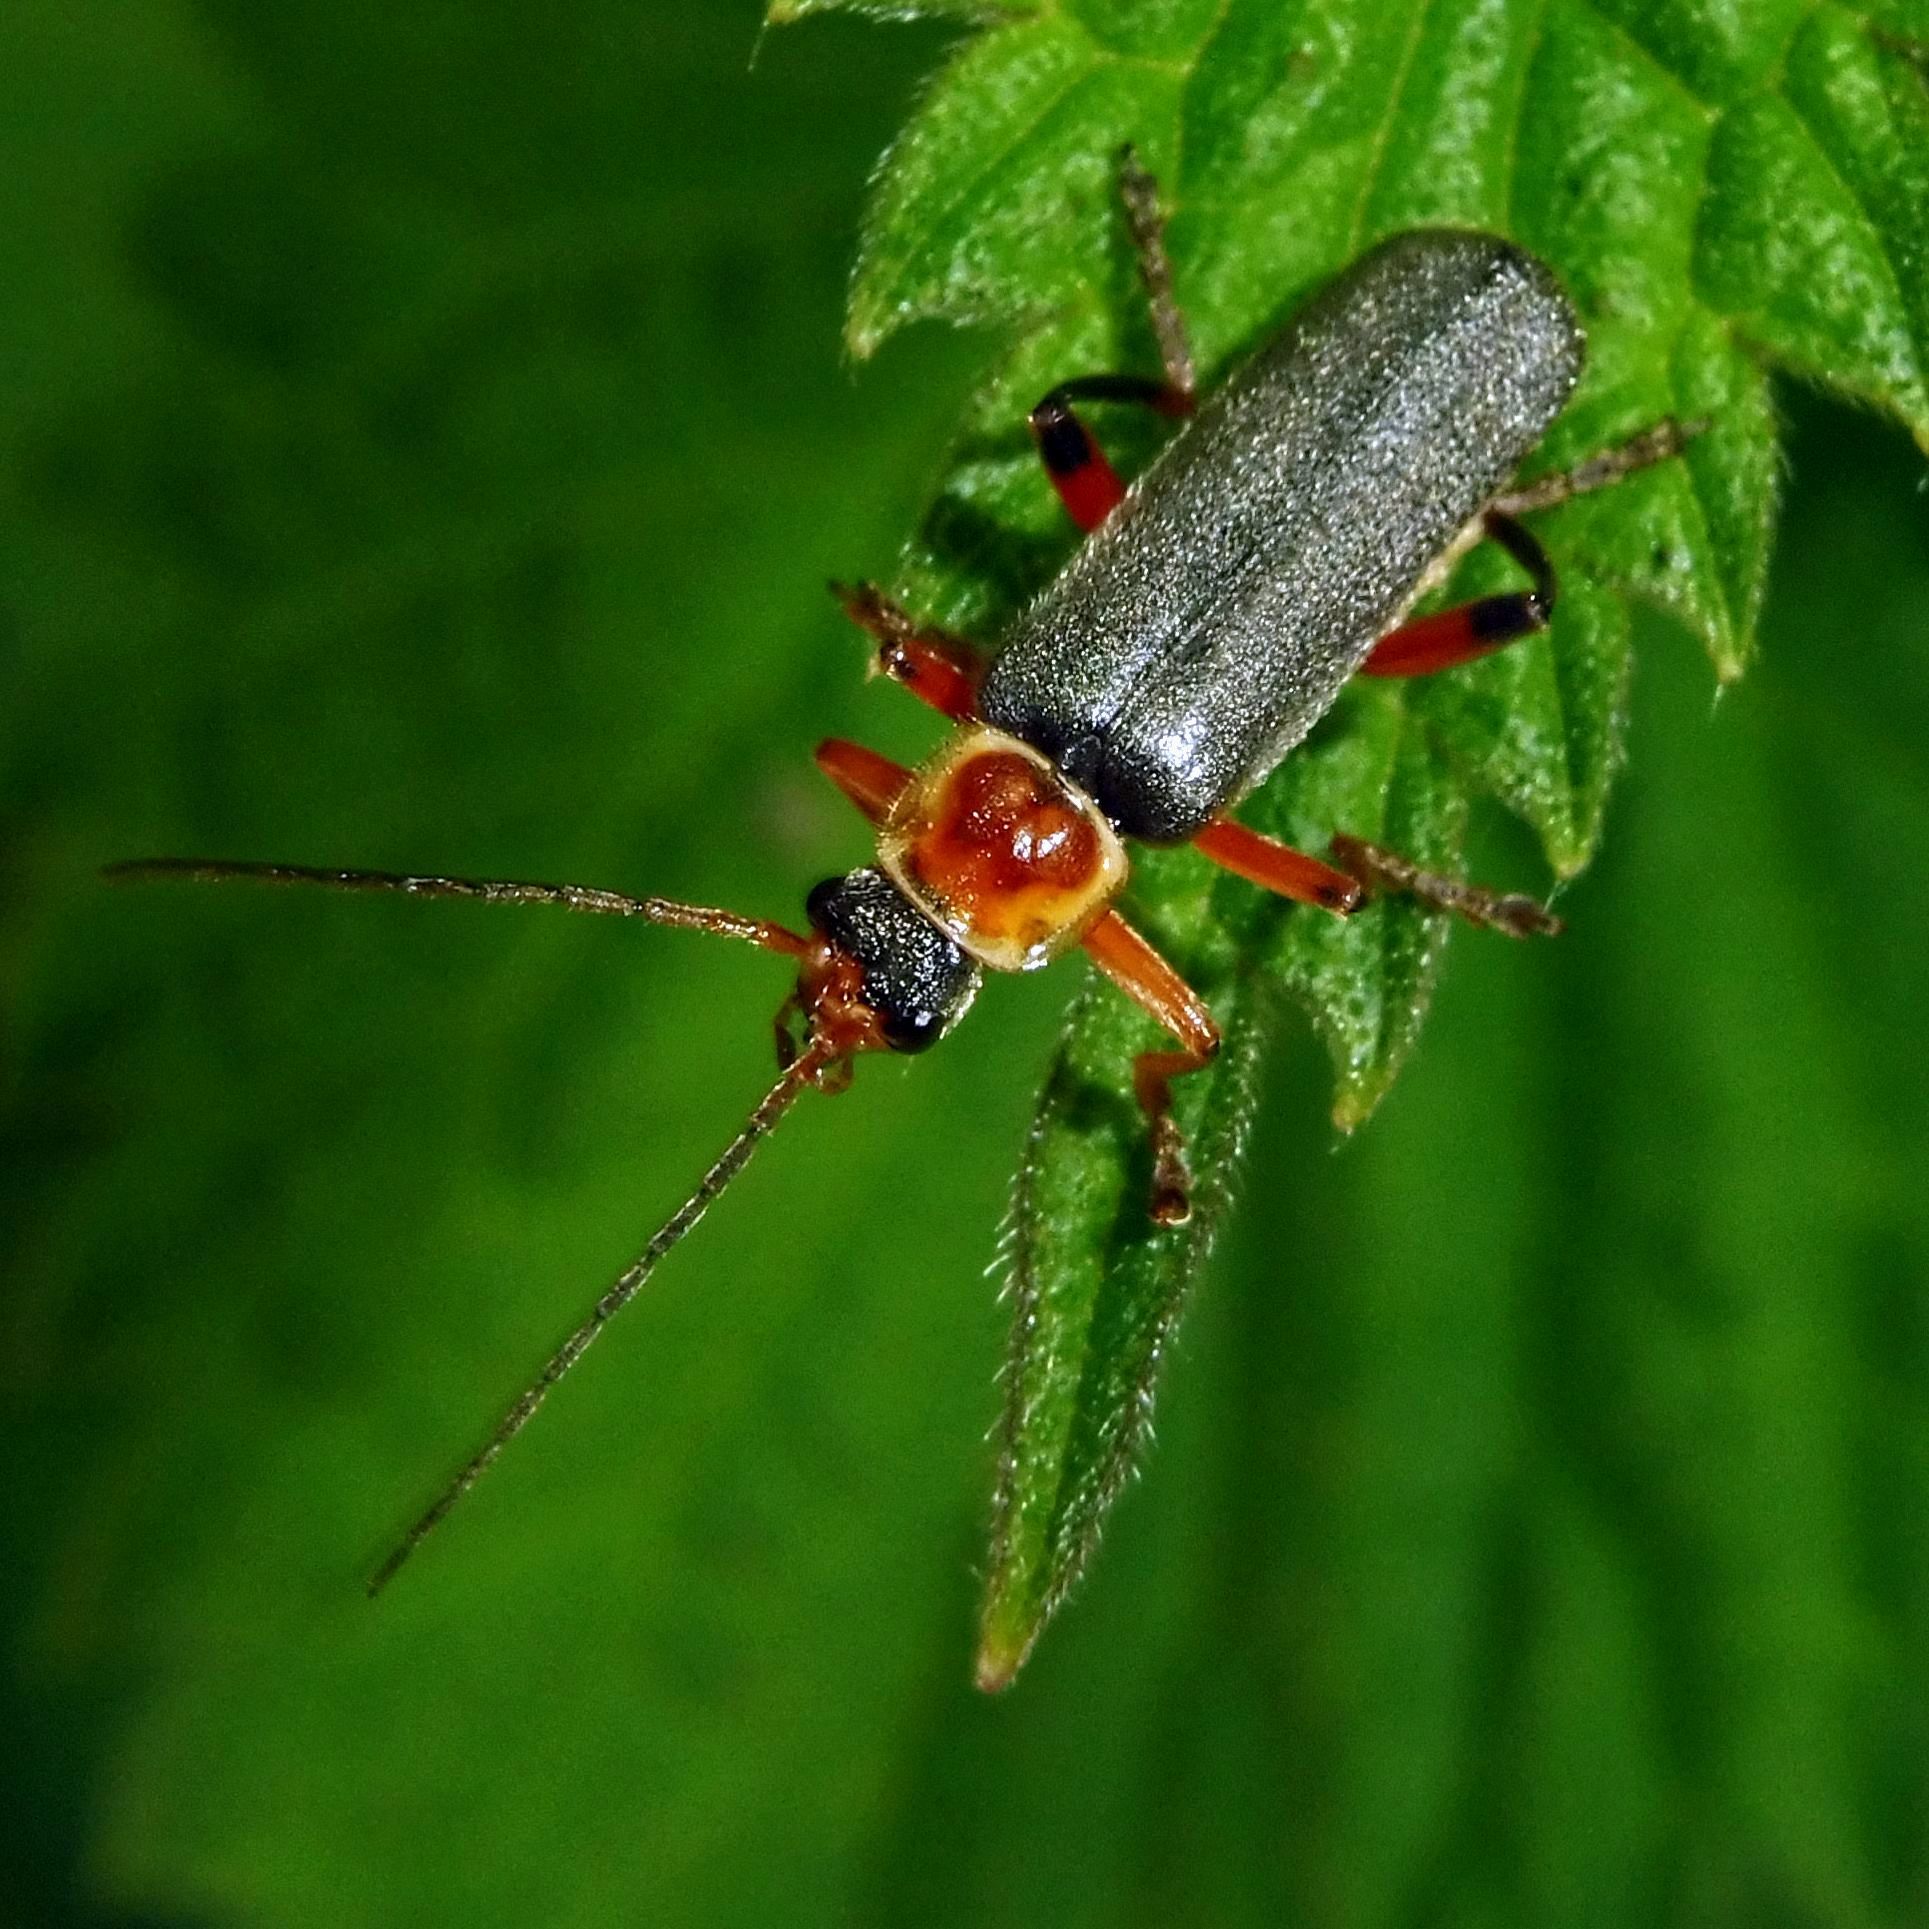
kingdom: Animalia
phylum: Arthropoda
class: Insecta
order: Coleoptera
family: Cantharidae
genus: Cantharis
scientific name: Cantharis nigricans
